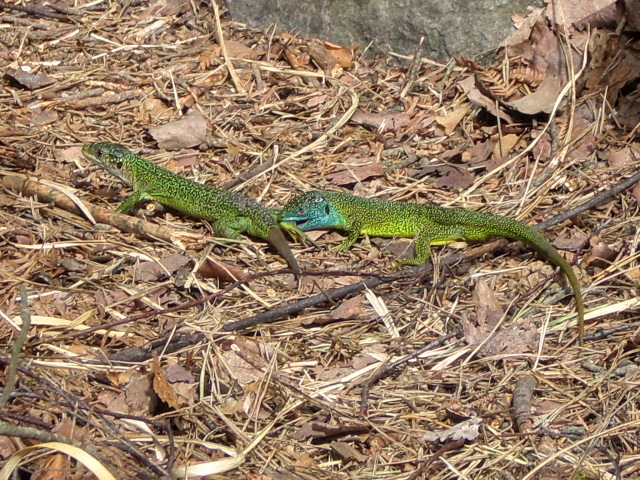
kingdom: Animalia
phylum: Chordata
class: Squamata
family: Lacertidae
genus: Lacerta
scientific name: Lacerta bilineata
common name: Western green lizard
